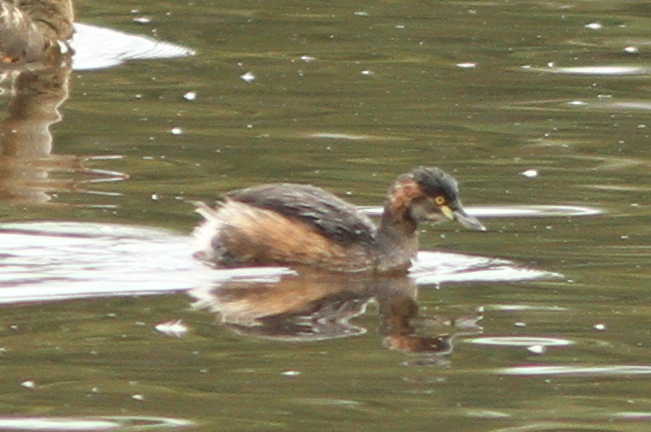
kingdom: Animalia
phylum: Chordata
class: Aves
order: Podicipediformes
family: Podicipedidae
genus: Tachybaptus
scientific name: Tachybaptus novaehollandiae
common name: Australasian grebe
